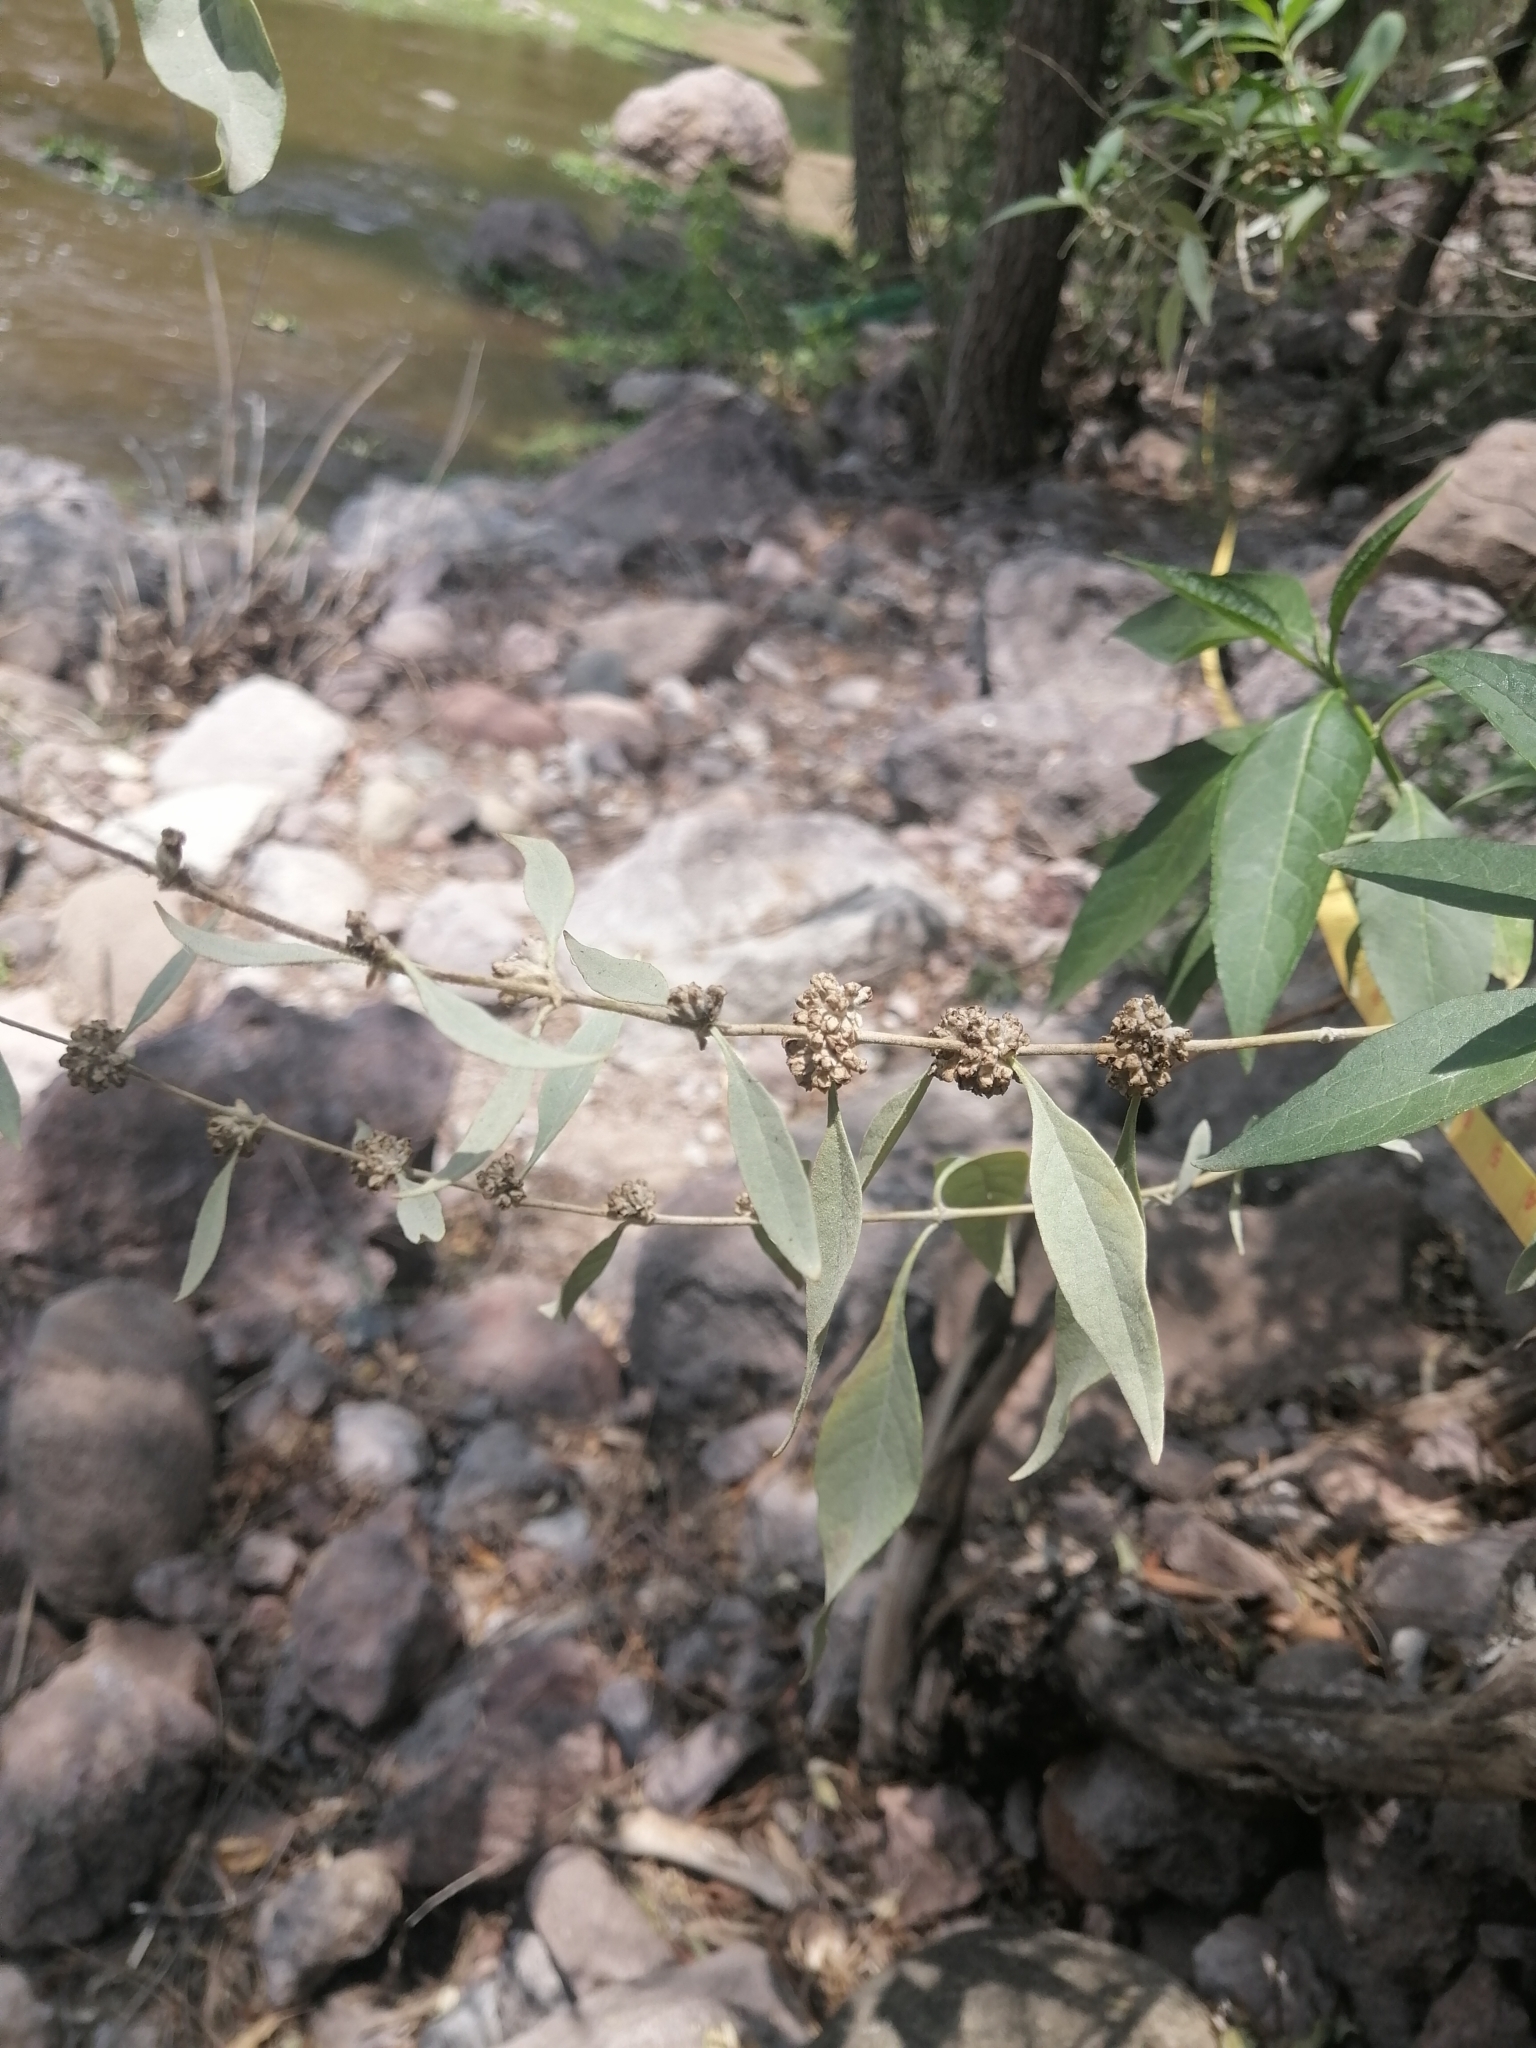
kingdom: Plantae
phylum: Tracheophyta
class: Magnoliopsida
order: Lamiales
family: Scrophulariaceae
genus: Buddleja
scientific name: Buddleja sessiliflora
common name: Rio grande butterfly-bush
